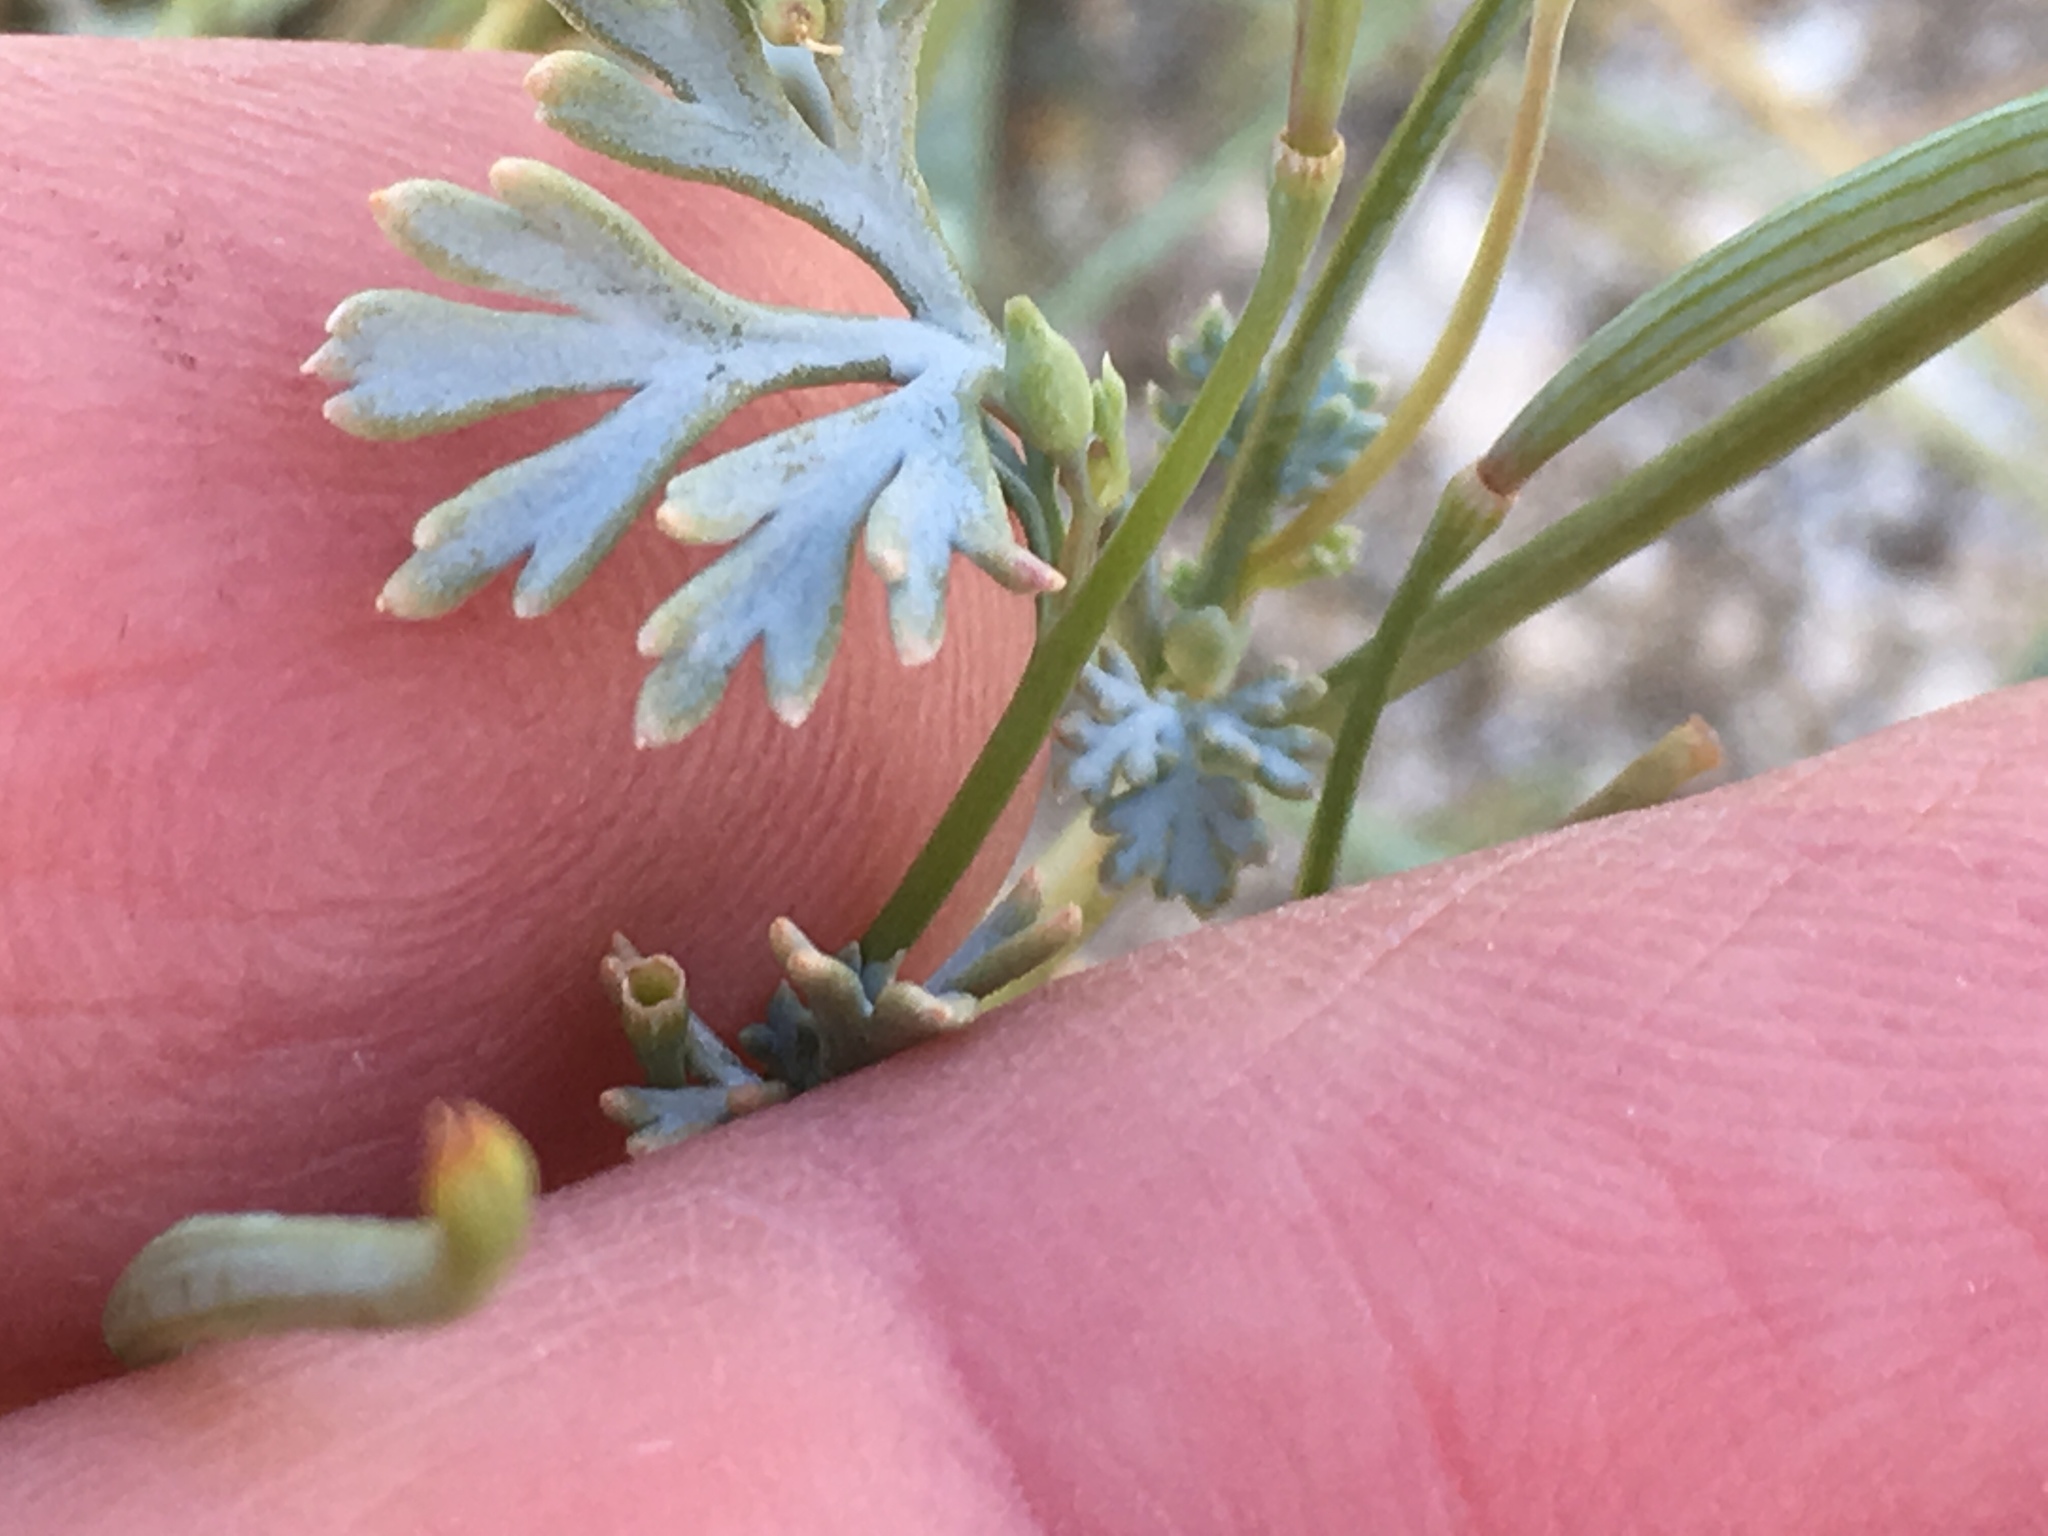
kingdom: Plantae
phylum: Tracheophyta
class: Magnoliopsida
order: Ranunculales
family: Papaveraceae
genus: Eschscholzia
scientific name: Eschscholzia minutiflora
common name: Small-flower california-poppy
